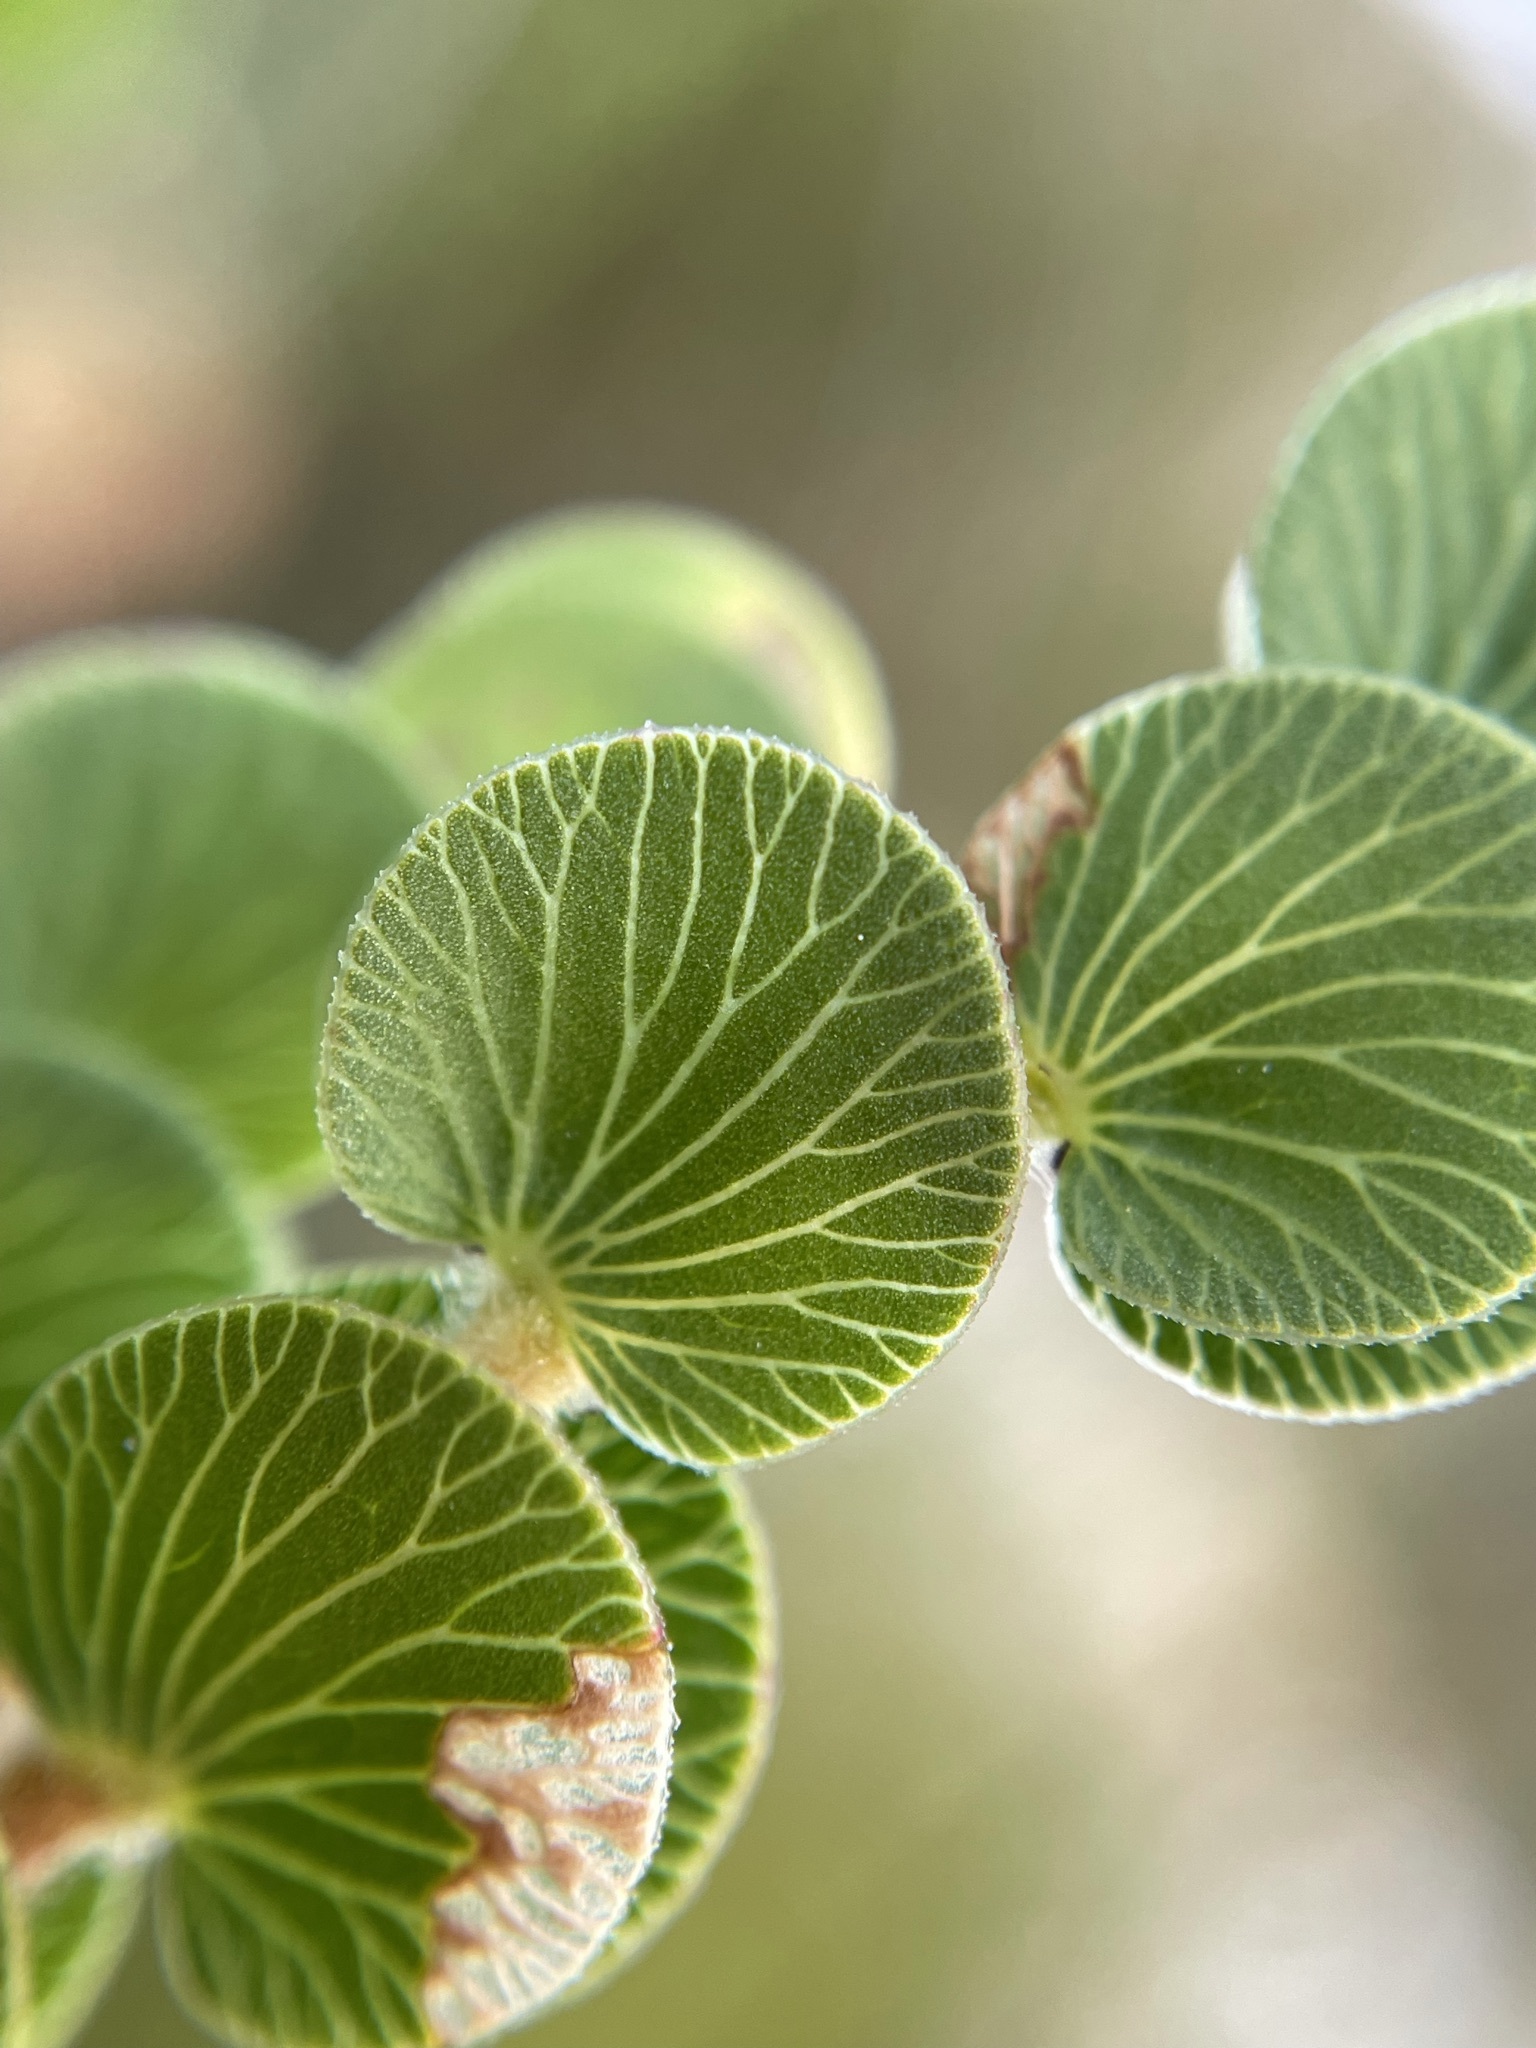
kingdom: Plantae
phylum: Tracheophyta
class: Magnoliopsida
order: Rosales
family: Rosaceae
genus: Cliffortia
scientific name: Cliffortia pulchella
